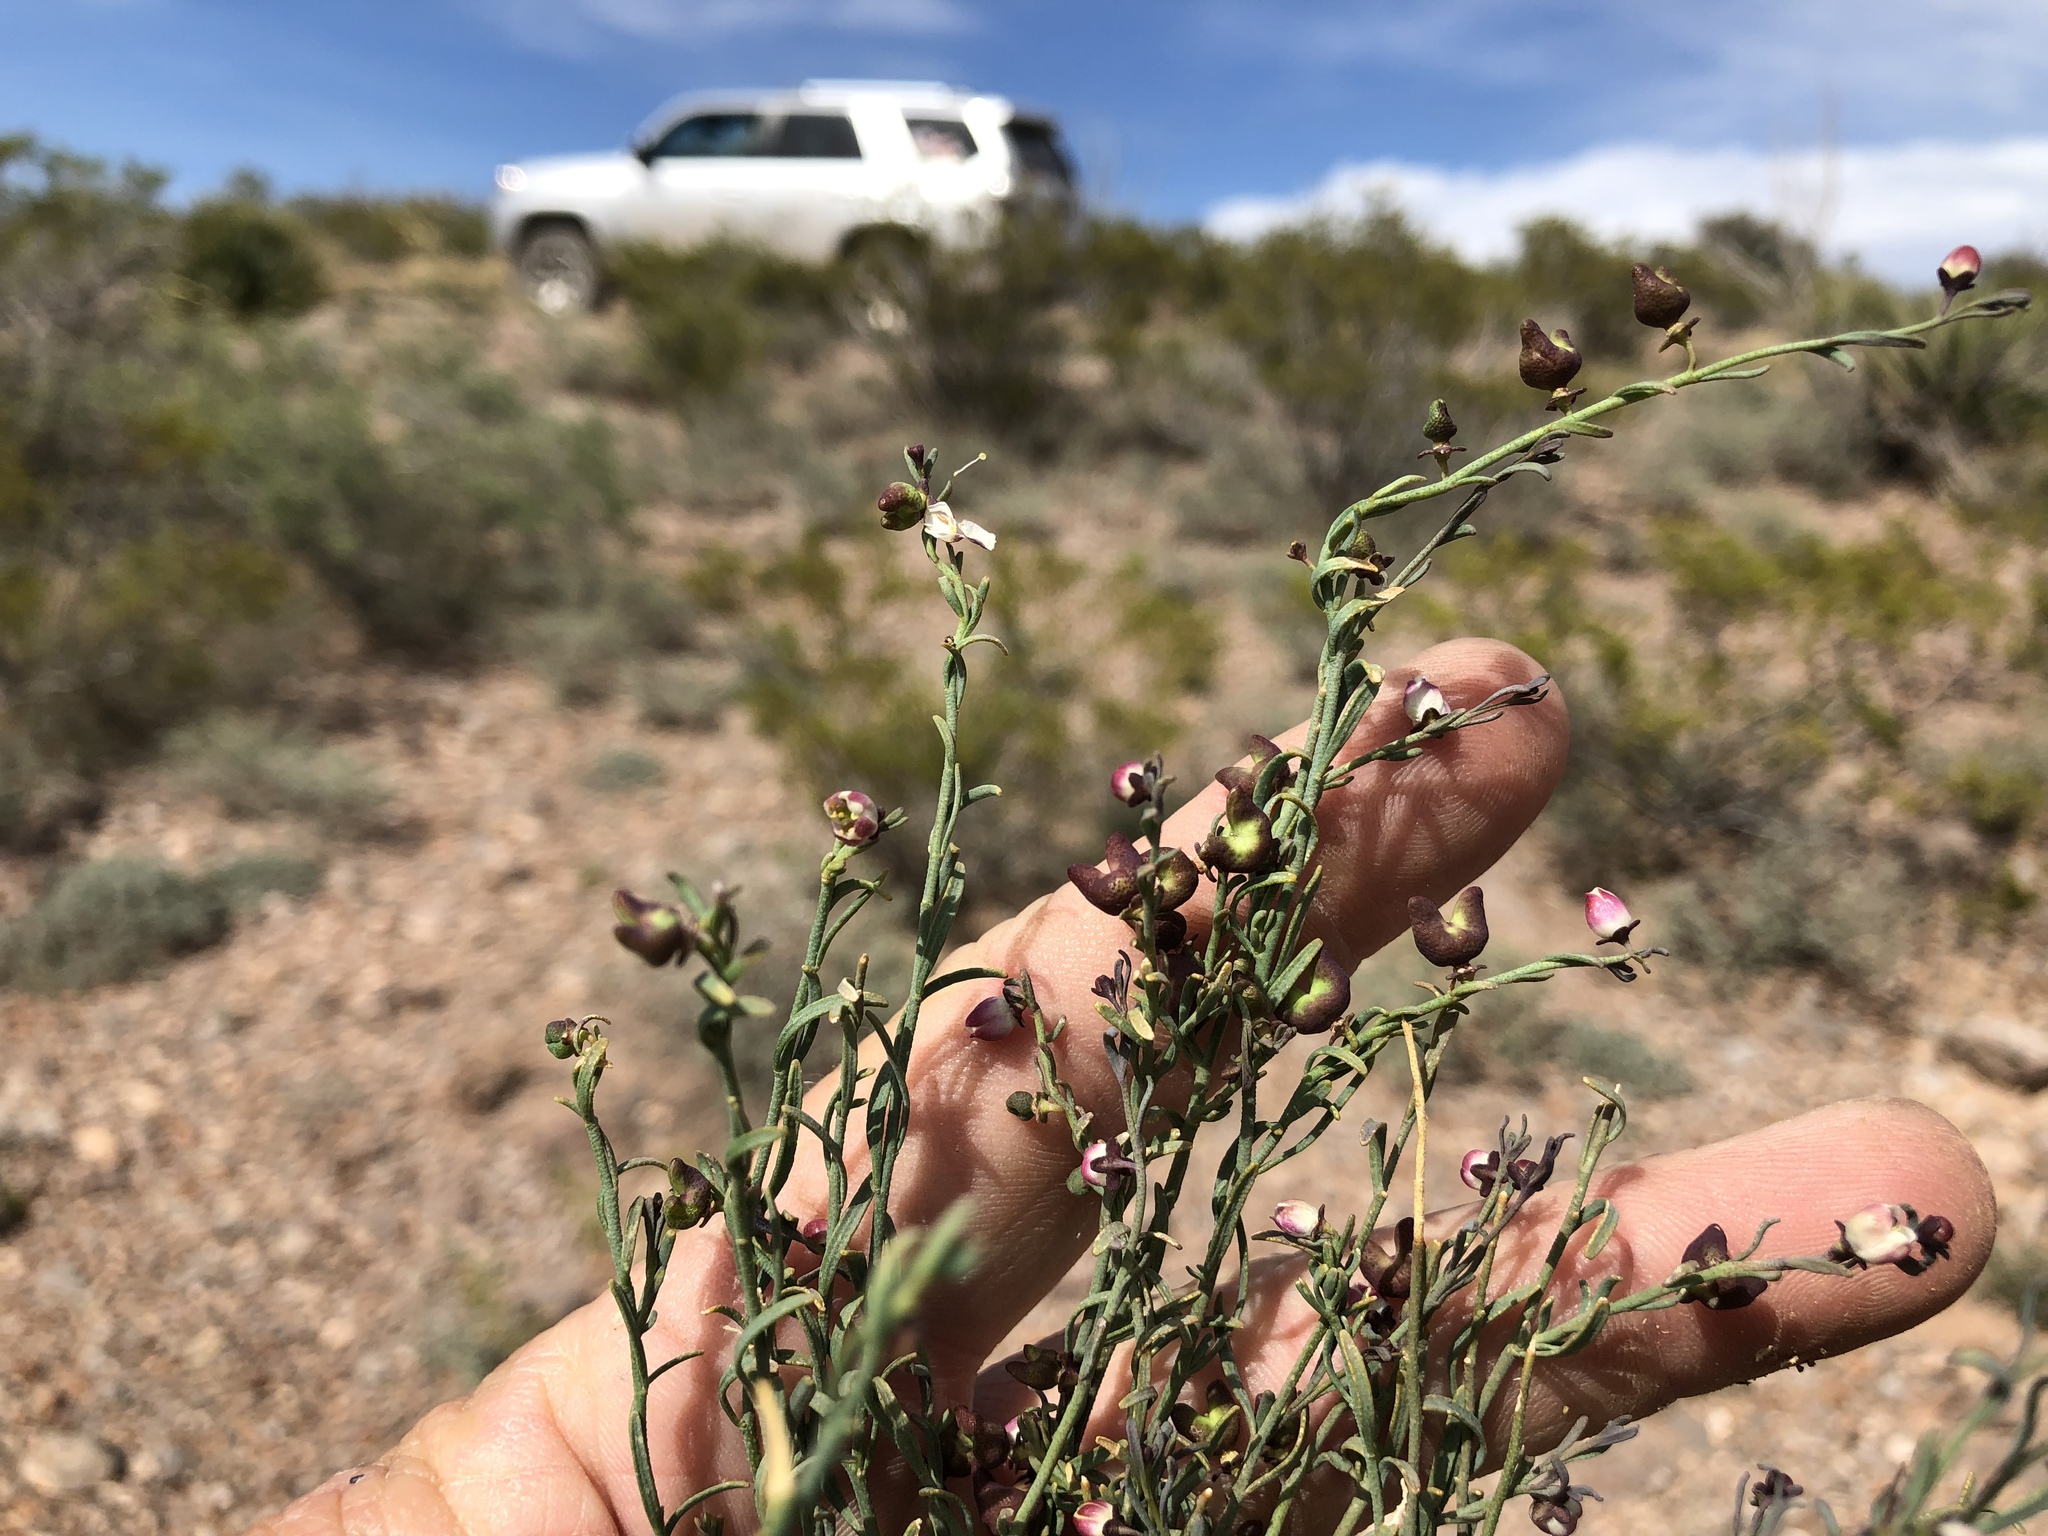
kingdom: Plantae
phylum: Tracheophyta
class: Magnoliopsida
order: Sapindales
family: Rutaceae
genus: Thamnosma
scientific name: Thamnosma texana
